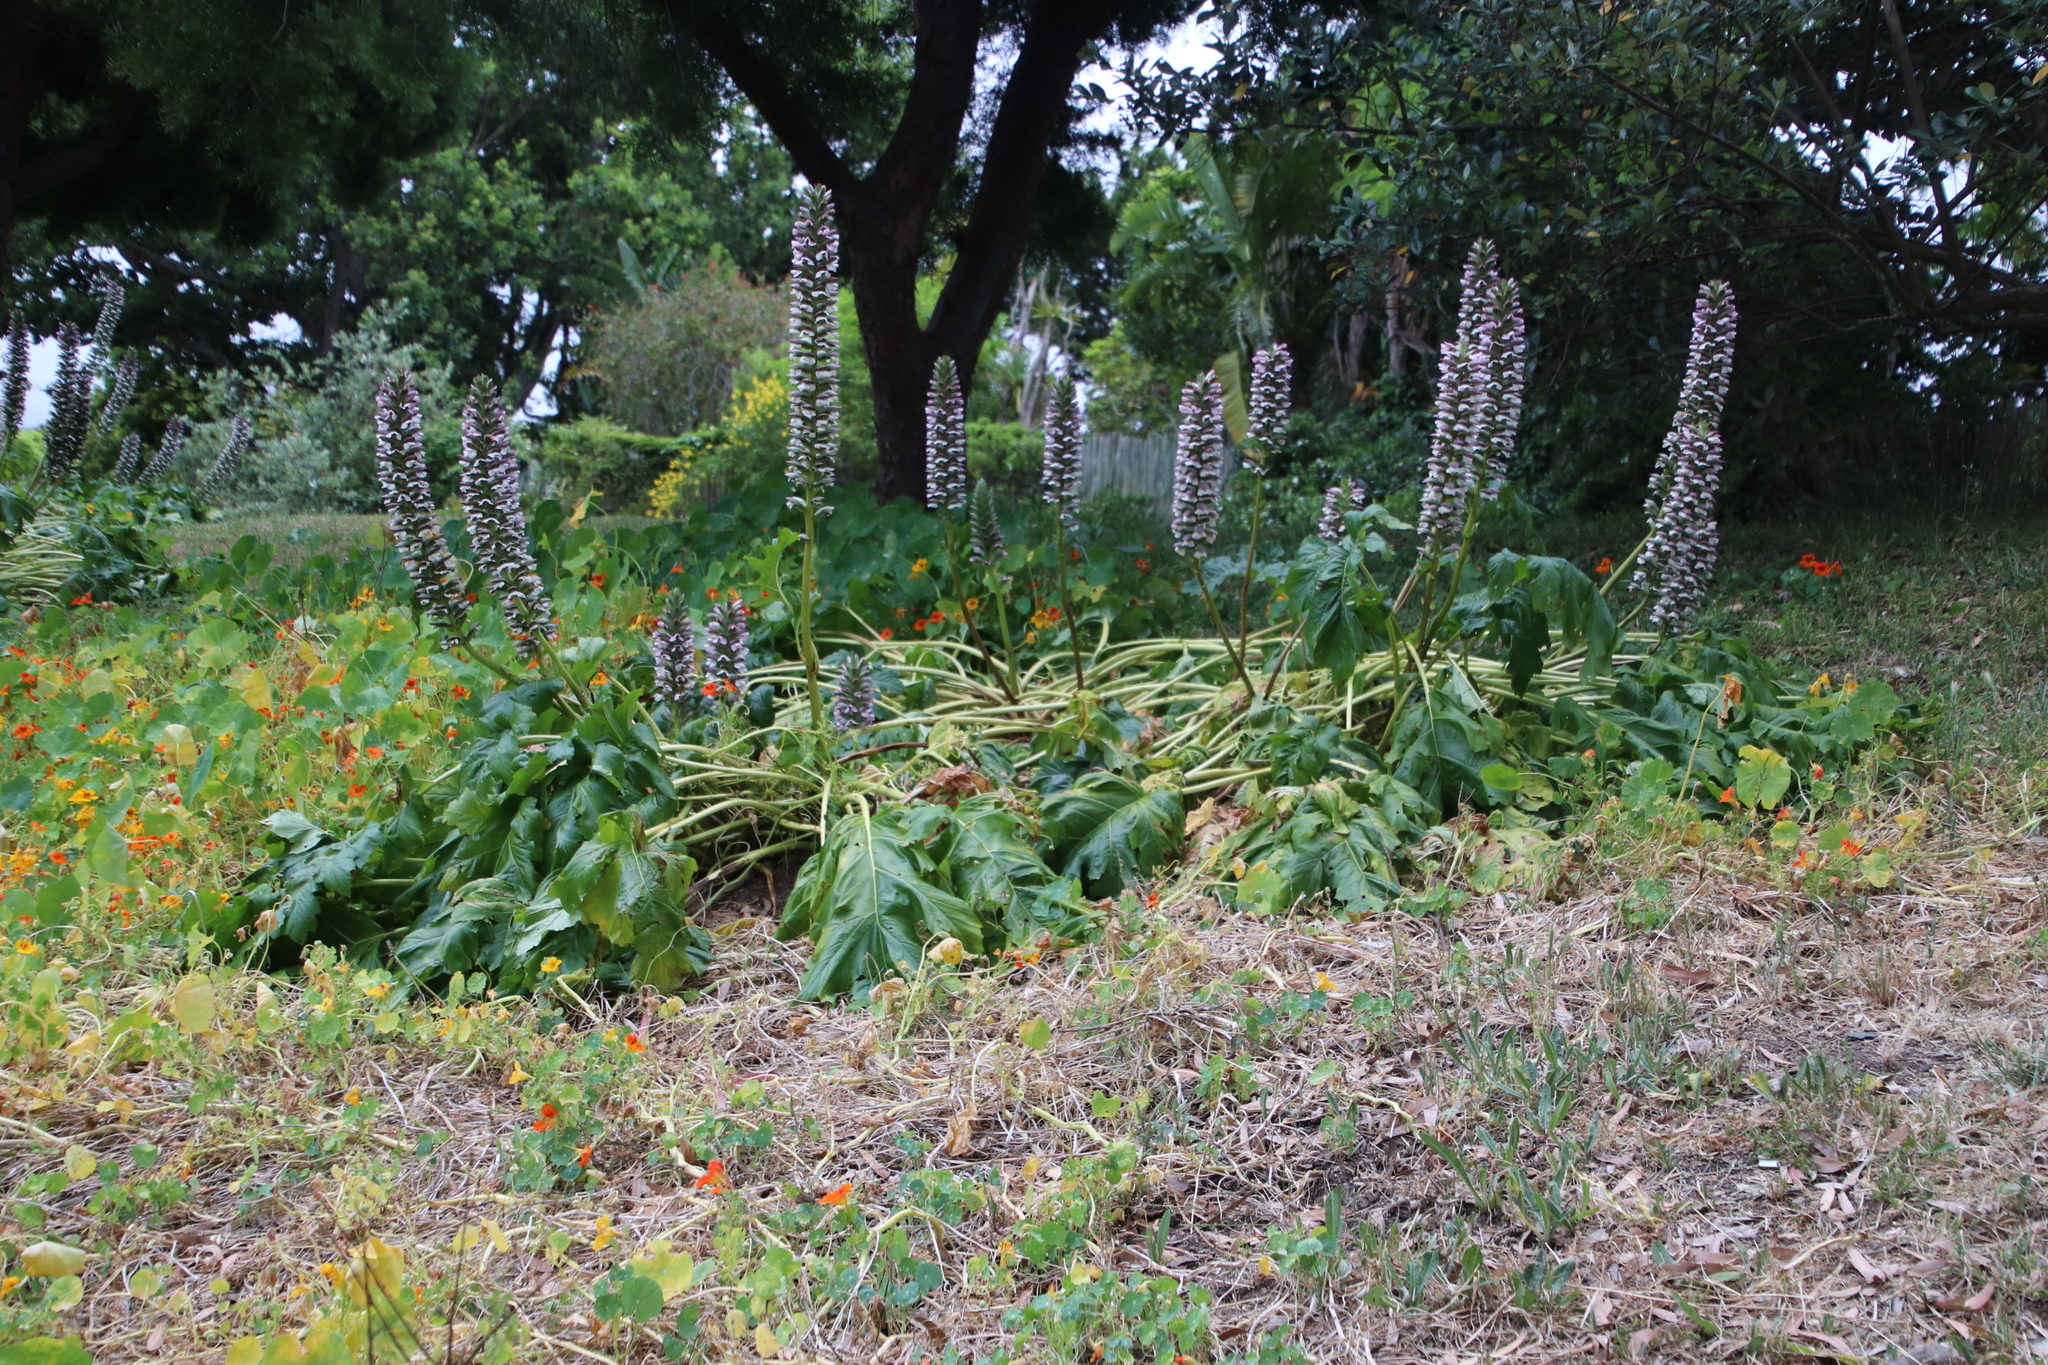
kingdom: Plantae
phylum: Tracheophyta
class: Magnoliopsida
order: Lamiales
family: Acanthaceae
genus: Acanthus
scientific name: Acanthus mollis
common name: Bear's-breech
